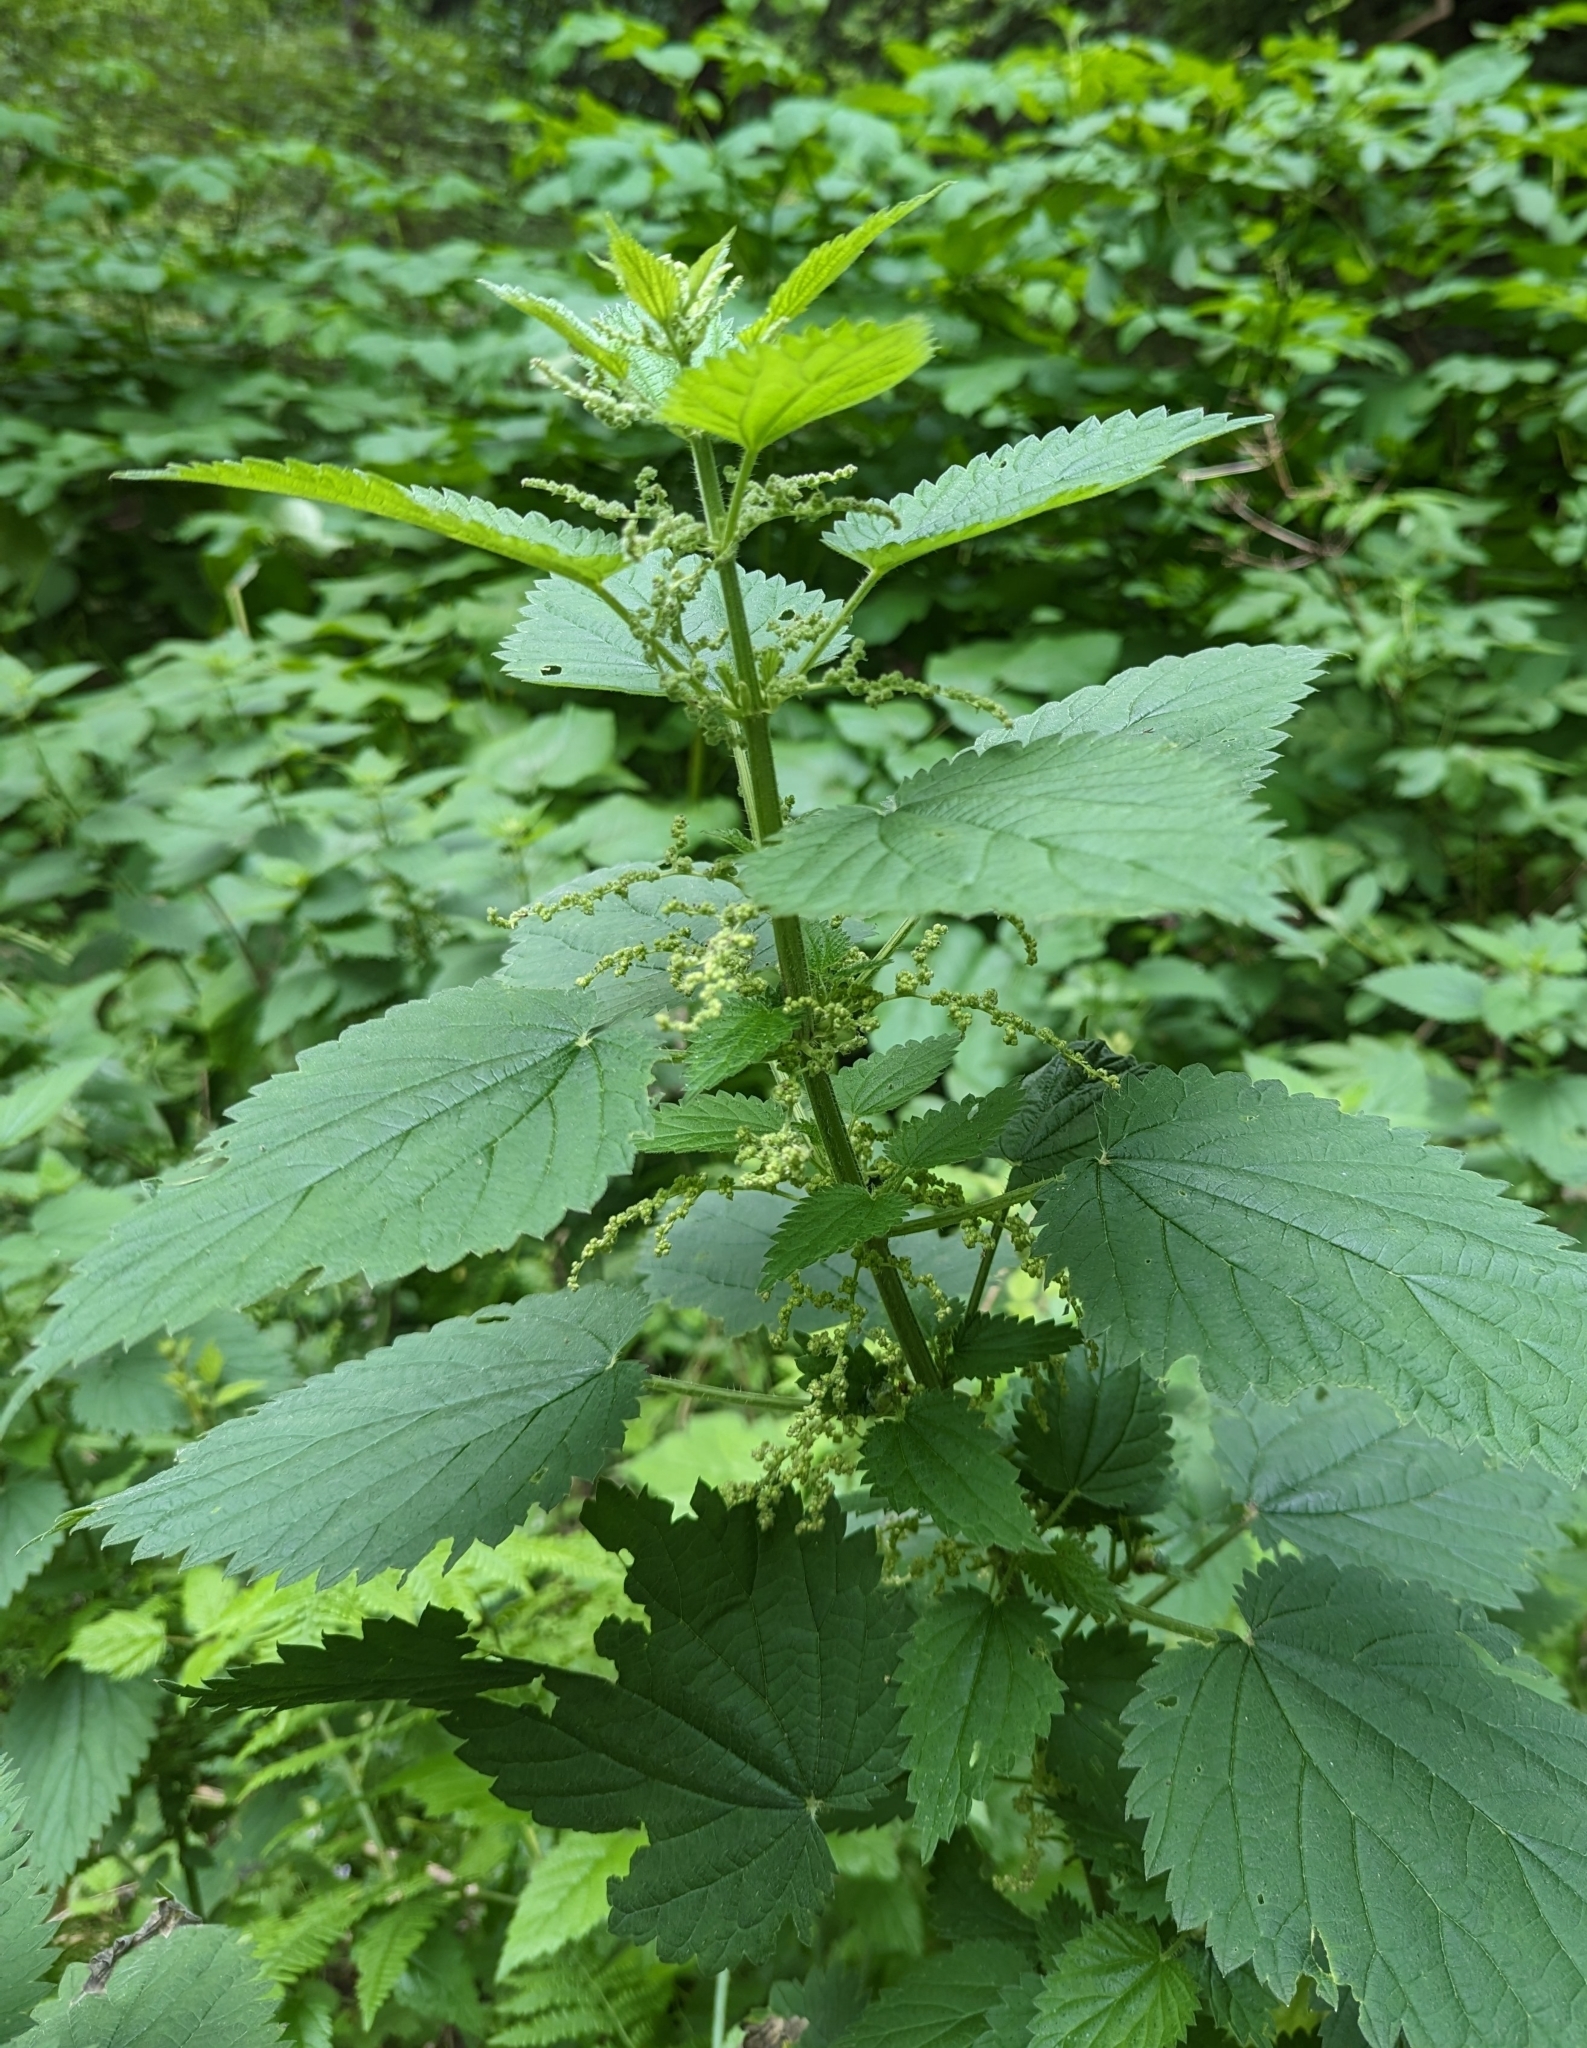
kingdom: Plantae
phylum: Tracheophyta
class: Magnoliopsida
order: Rosales
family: Urticaceae
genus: Urtica
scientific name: Urtica dioica
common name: Common nettle
